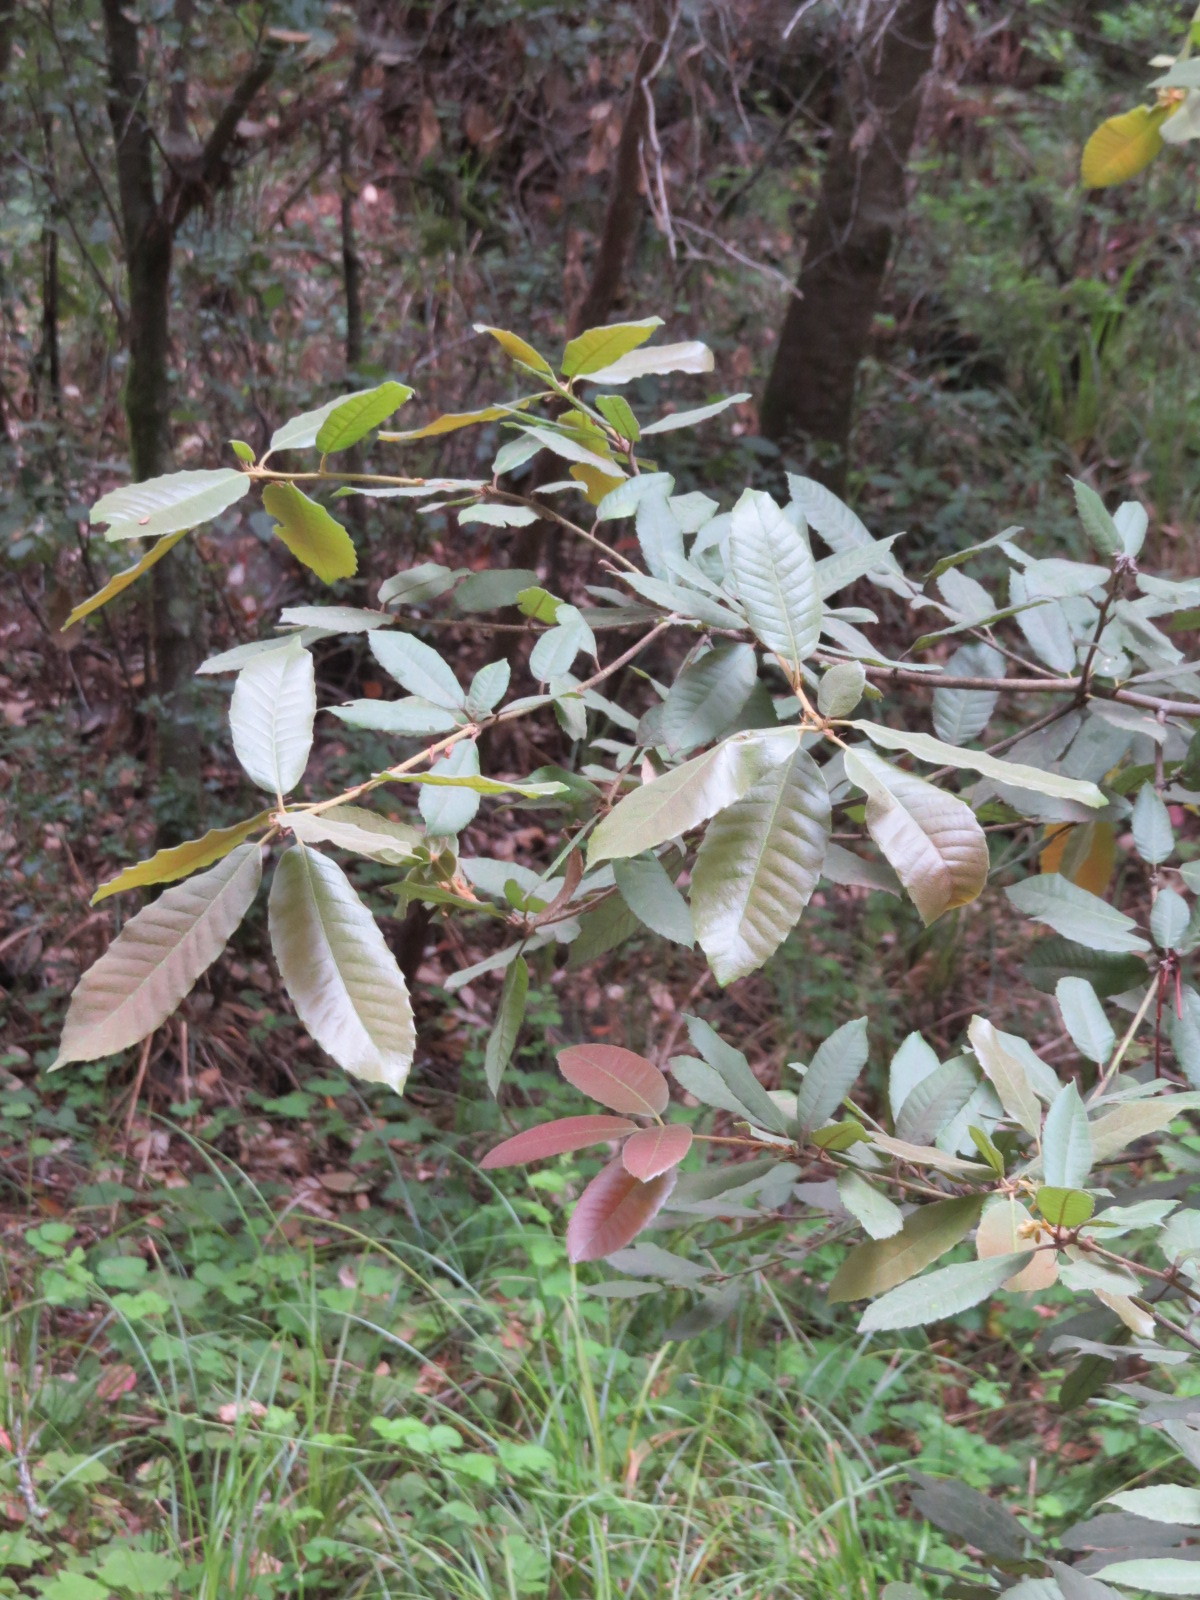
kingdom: Plantae
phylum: Tracheophyta
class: Magnoliopsida
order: Fagales
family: Fagaceae
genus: Notholithocarpus
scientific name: Notholithocarpus densiflorus
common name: Tan bark oak
